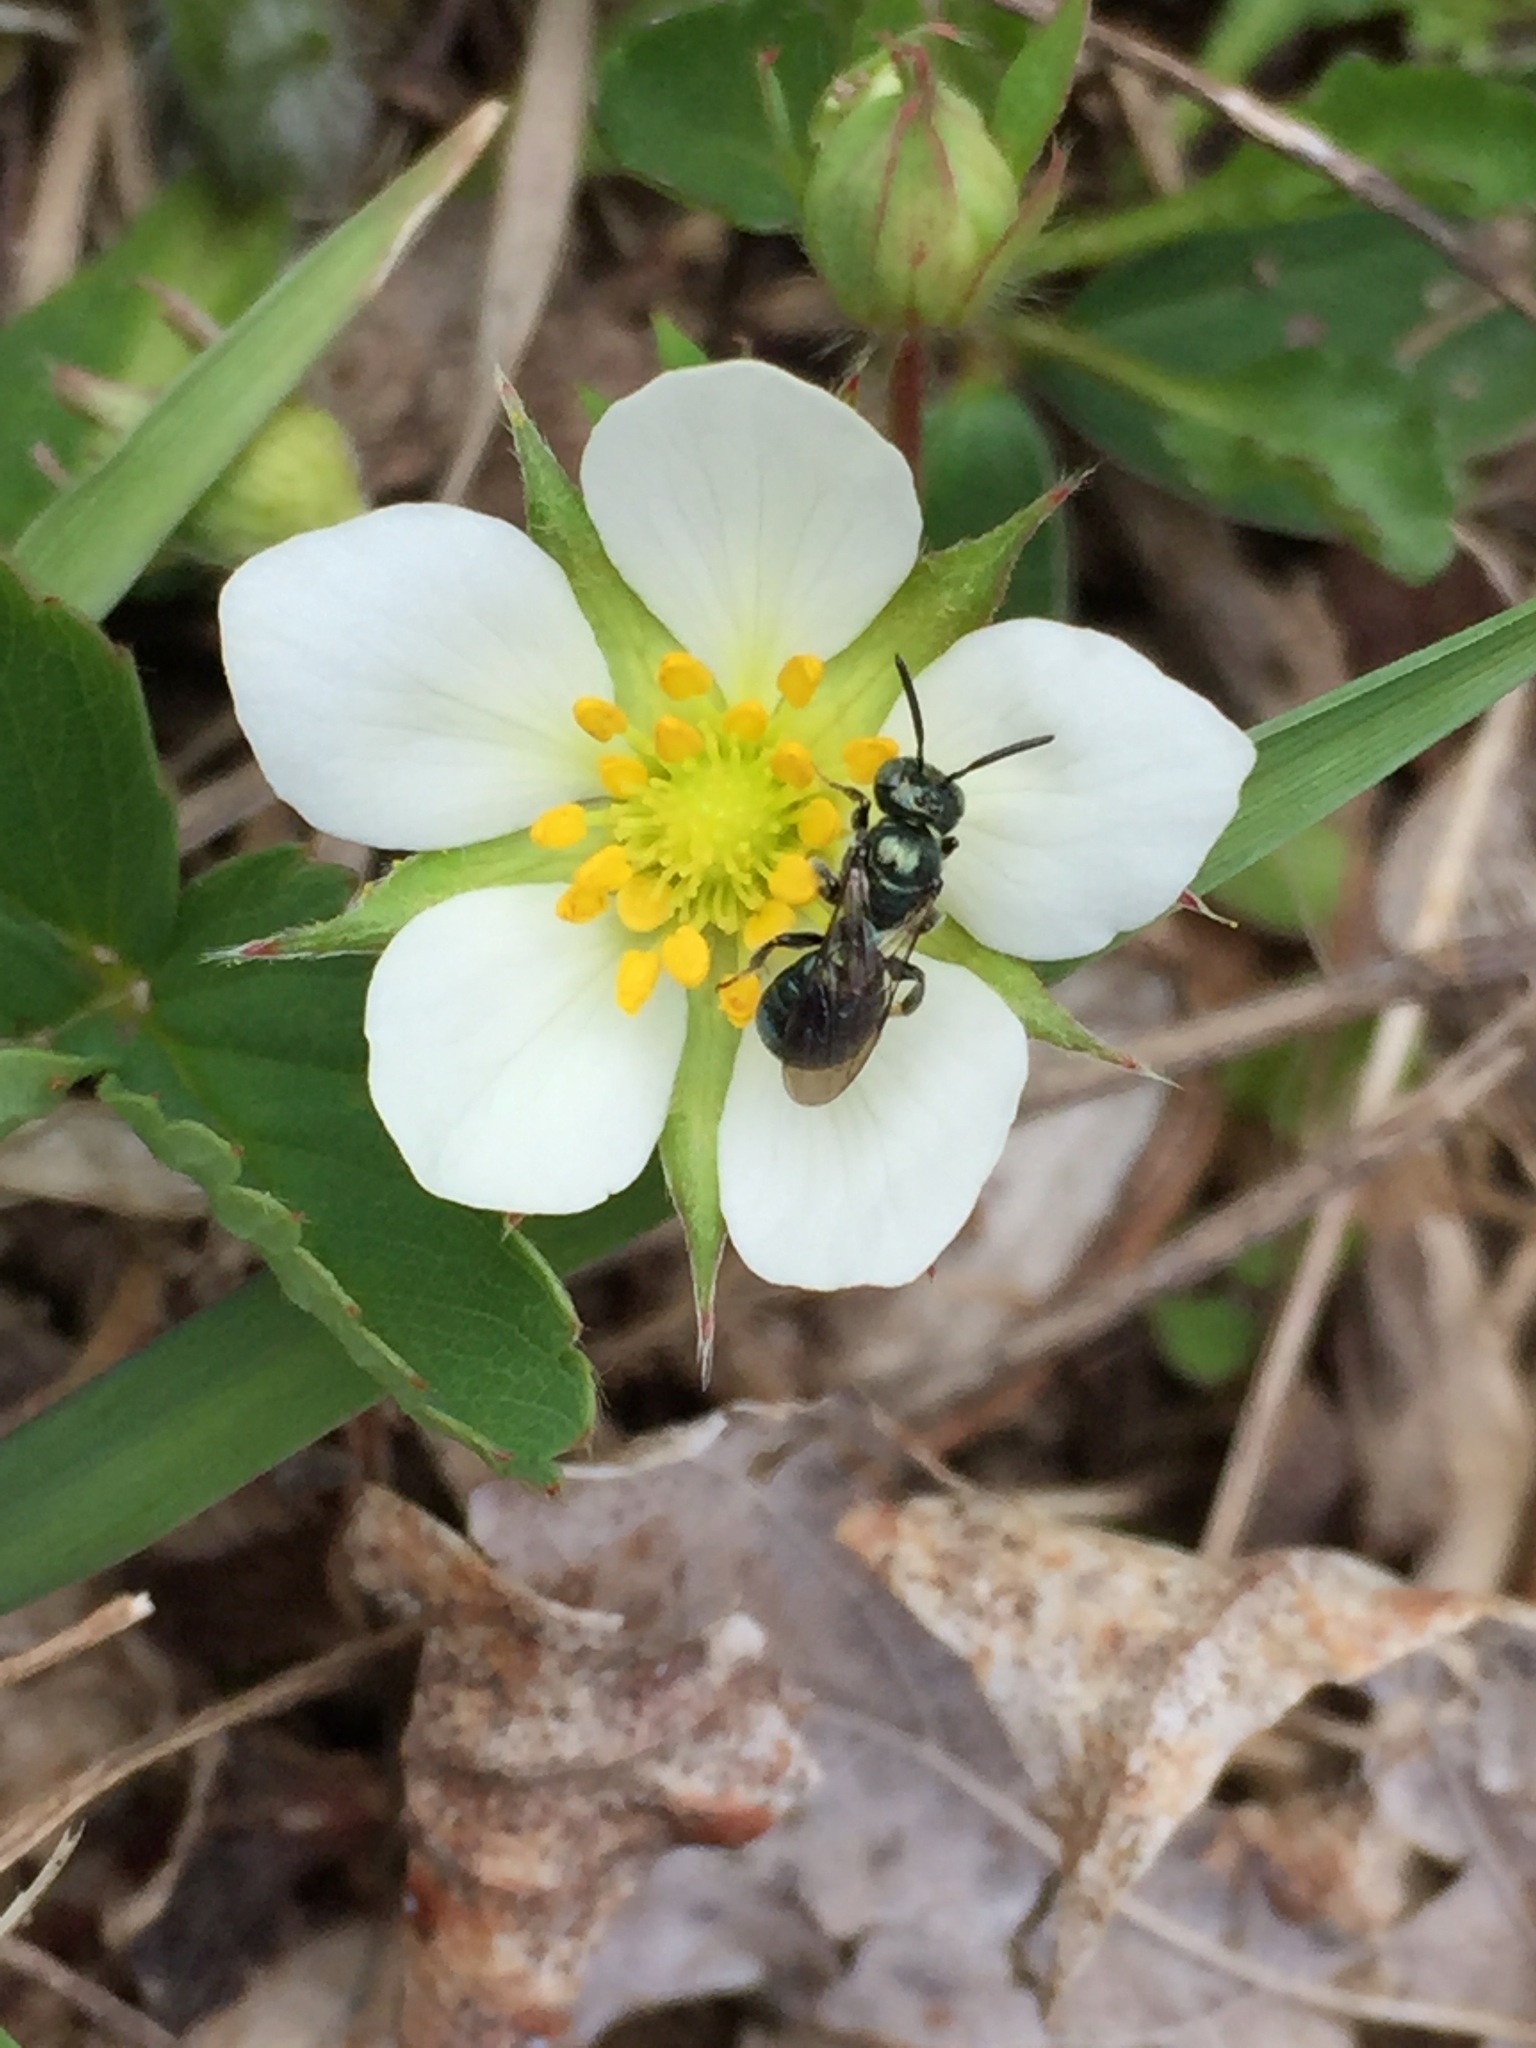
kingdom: Animalia
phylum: Arthropoda
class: Insecta
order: Hymenoptera
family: Apidae
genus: Ceratina
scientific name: Ceratina calcarata
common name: Spurred carpenter bee
